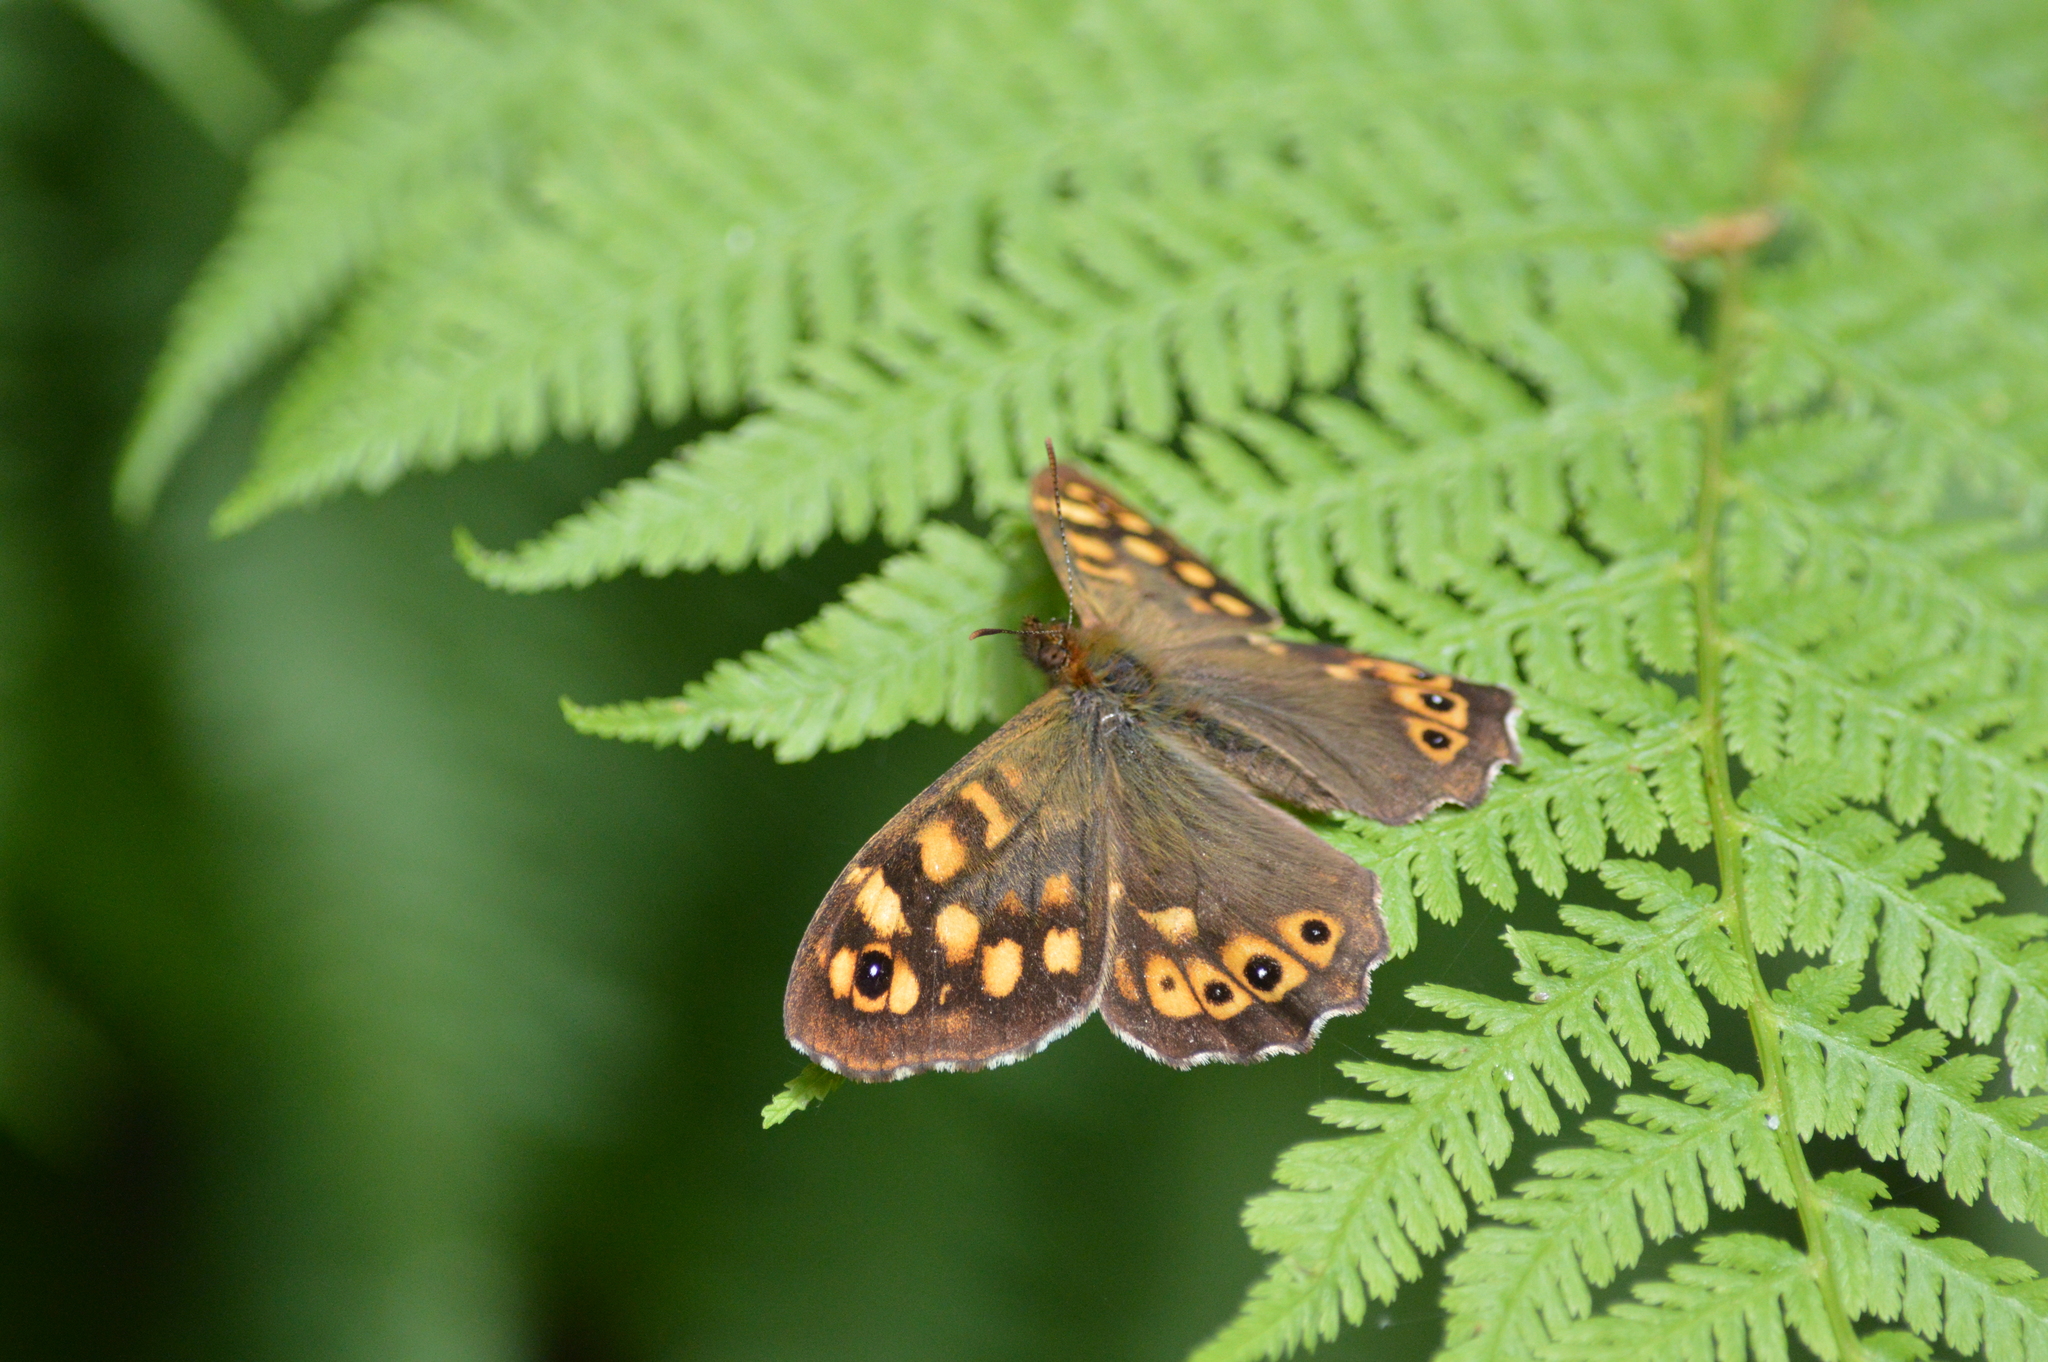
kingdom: Animalia
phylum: Arthropoda
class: Insecta
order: Lepidoptera
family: Nymphalidae
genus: Pararge
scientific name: Pararge aegeria
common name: Speckled wood
